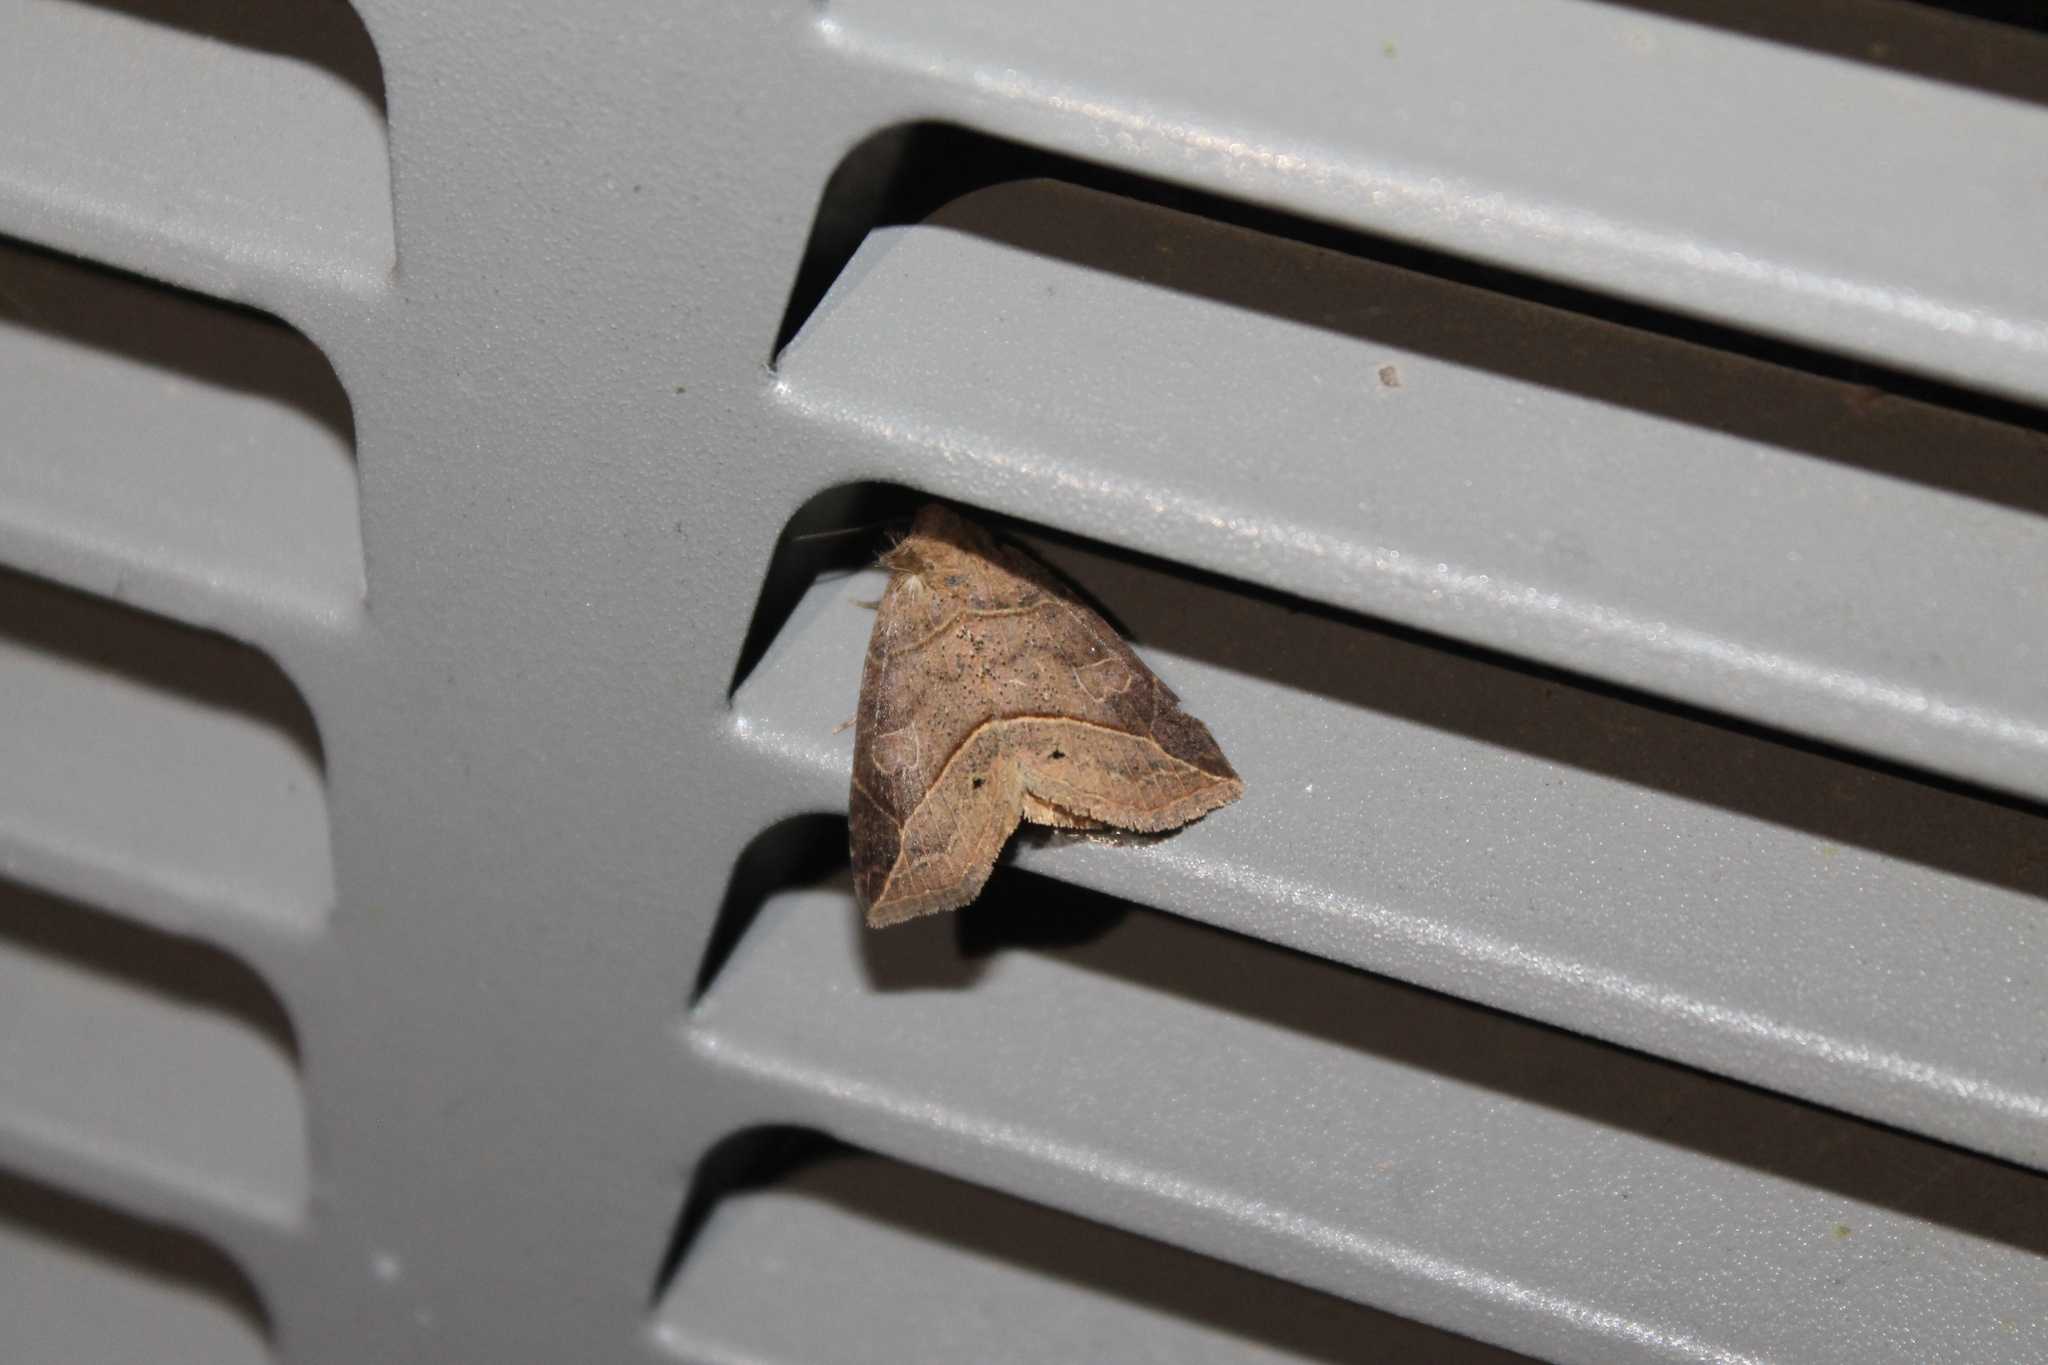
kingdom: Animalia
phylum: Arthropoda
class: Insecta
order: Lepidoptera
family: Erebidae
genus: Isogona
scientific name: Isogona tenuis
